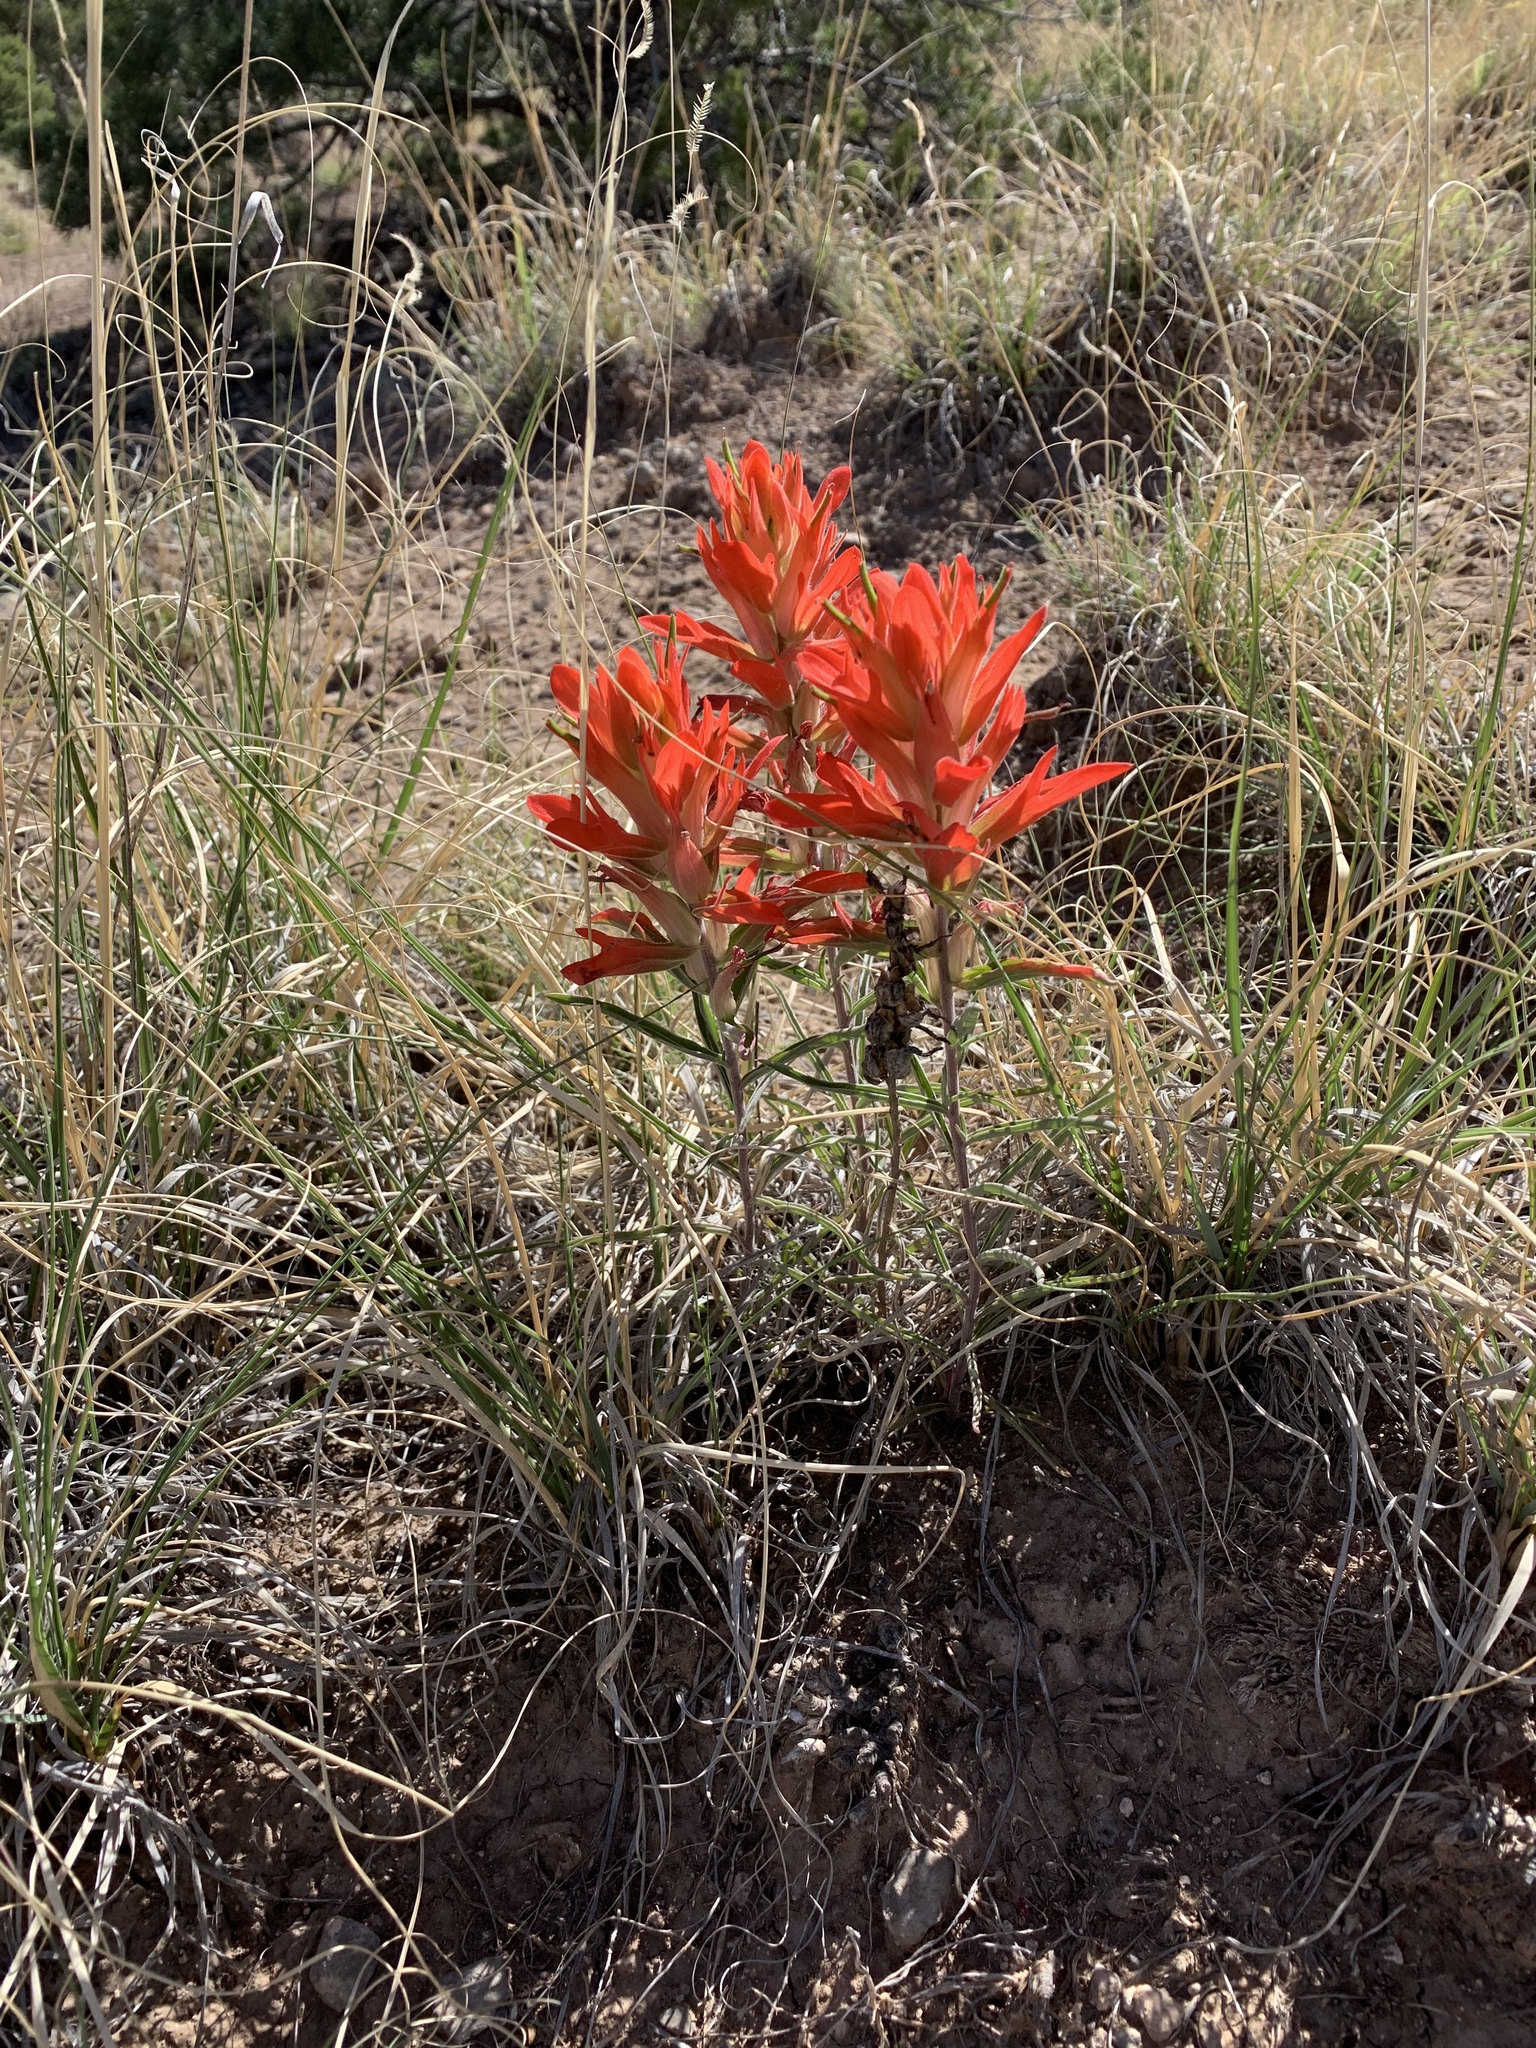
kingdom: Plantae
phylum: Tracheophyta
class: Magnoliopsida
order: Lamiales
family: Orobanchaceae
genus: Castilleja
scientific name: Castilleja integra
